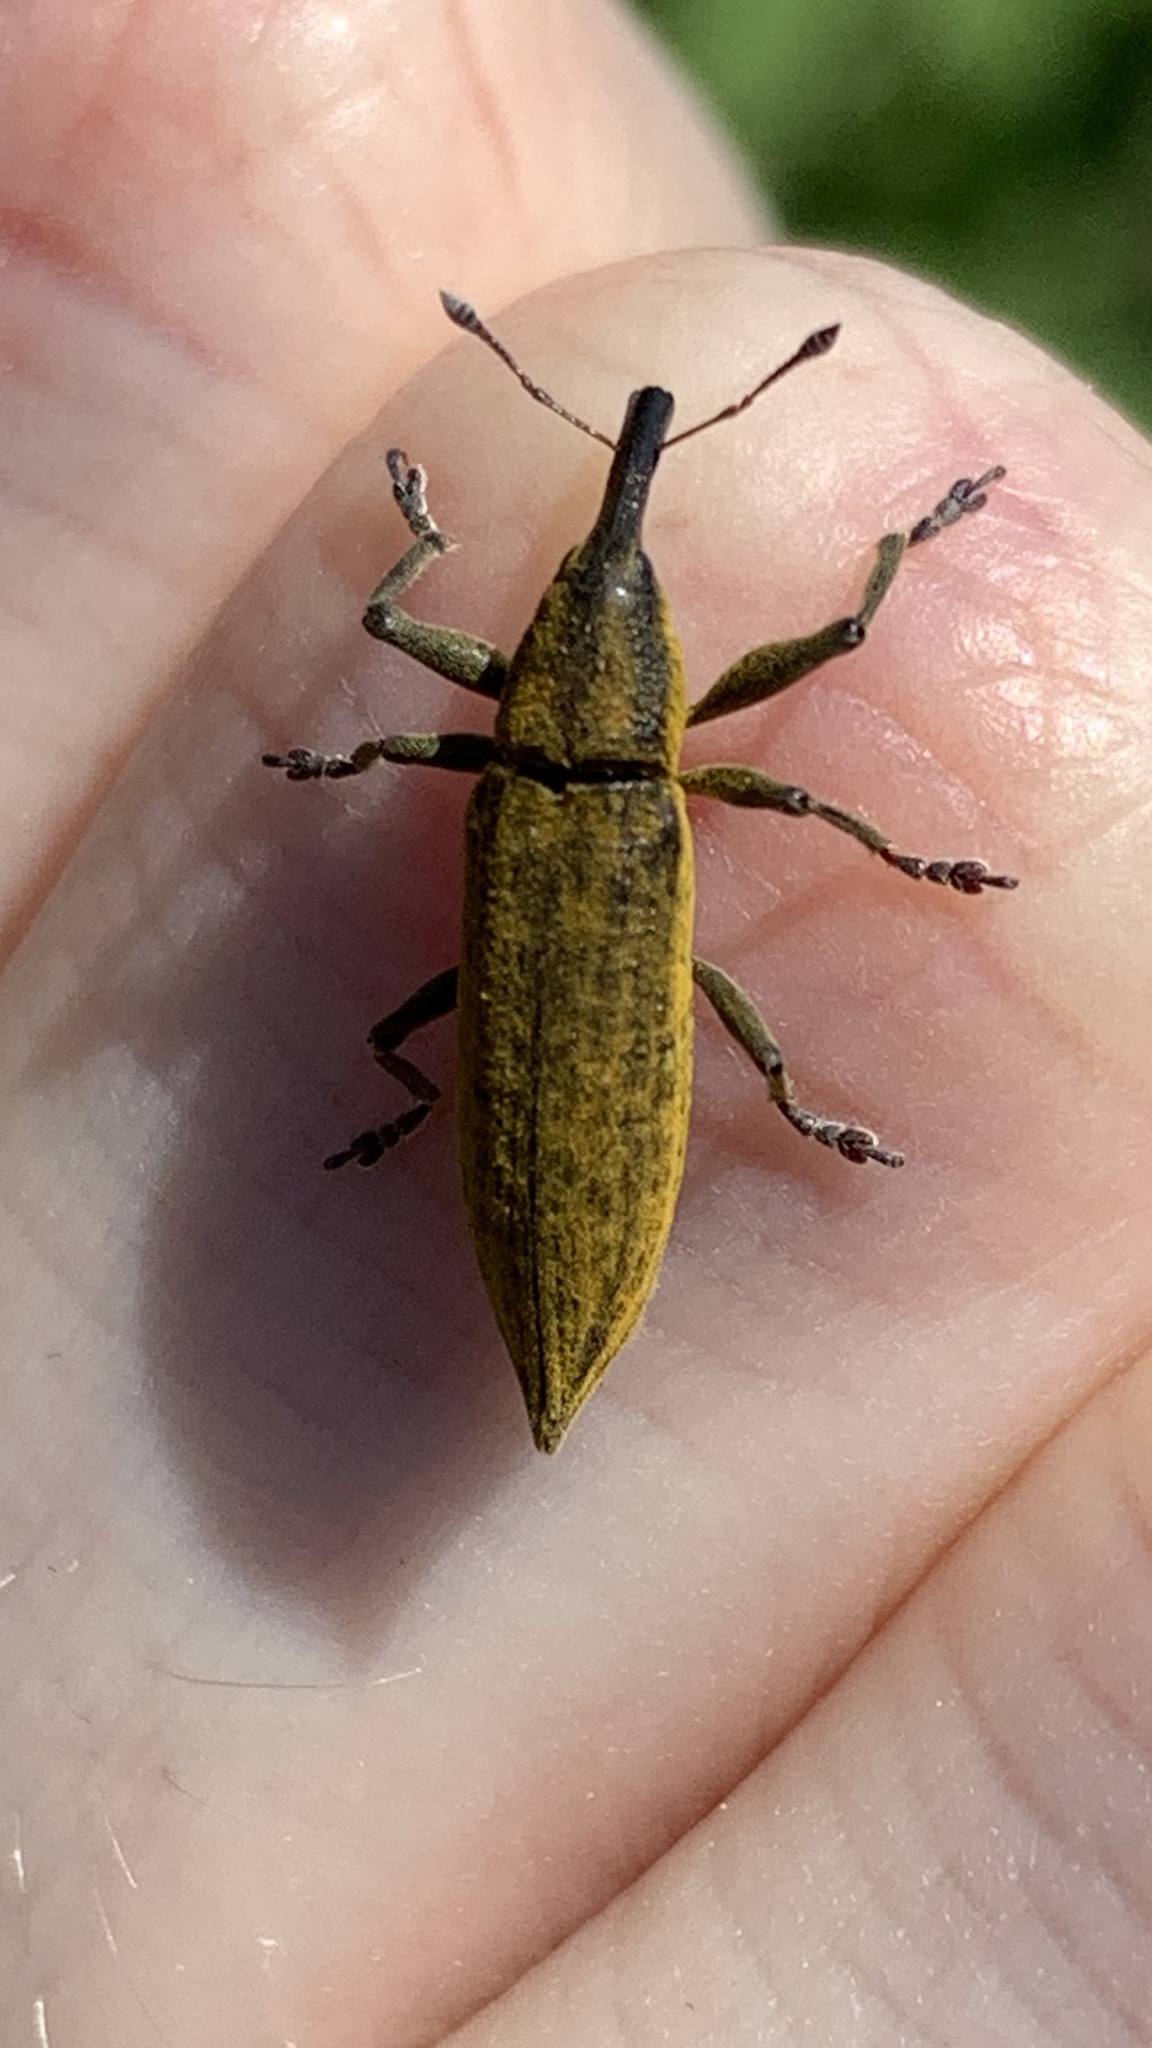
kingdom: Animalia
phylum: Arthropoda
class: Insecta
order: Coleoptera
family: Curculionidae
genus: Lixus
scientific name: Lixus iridis
